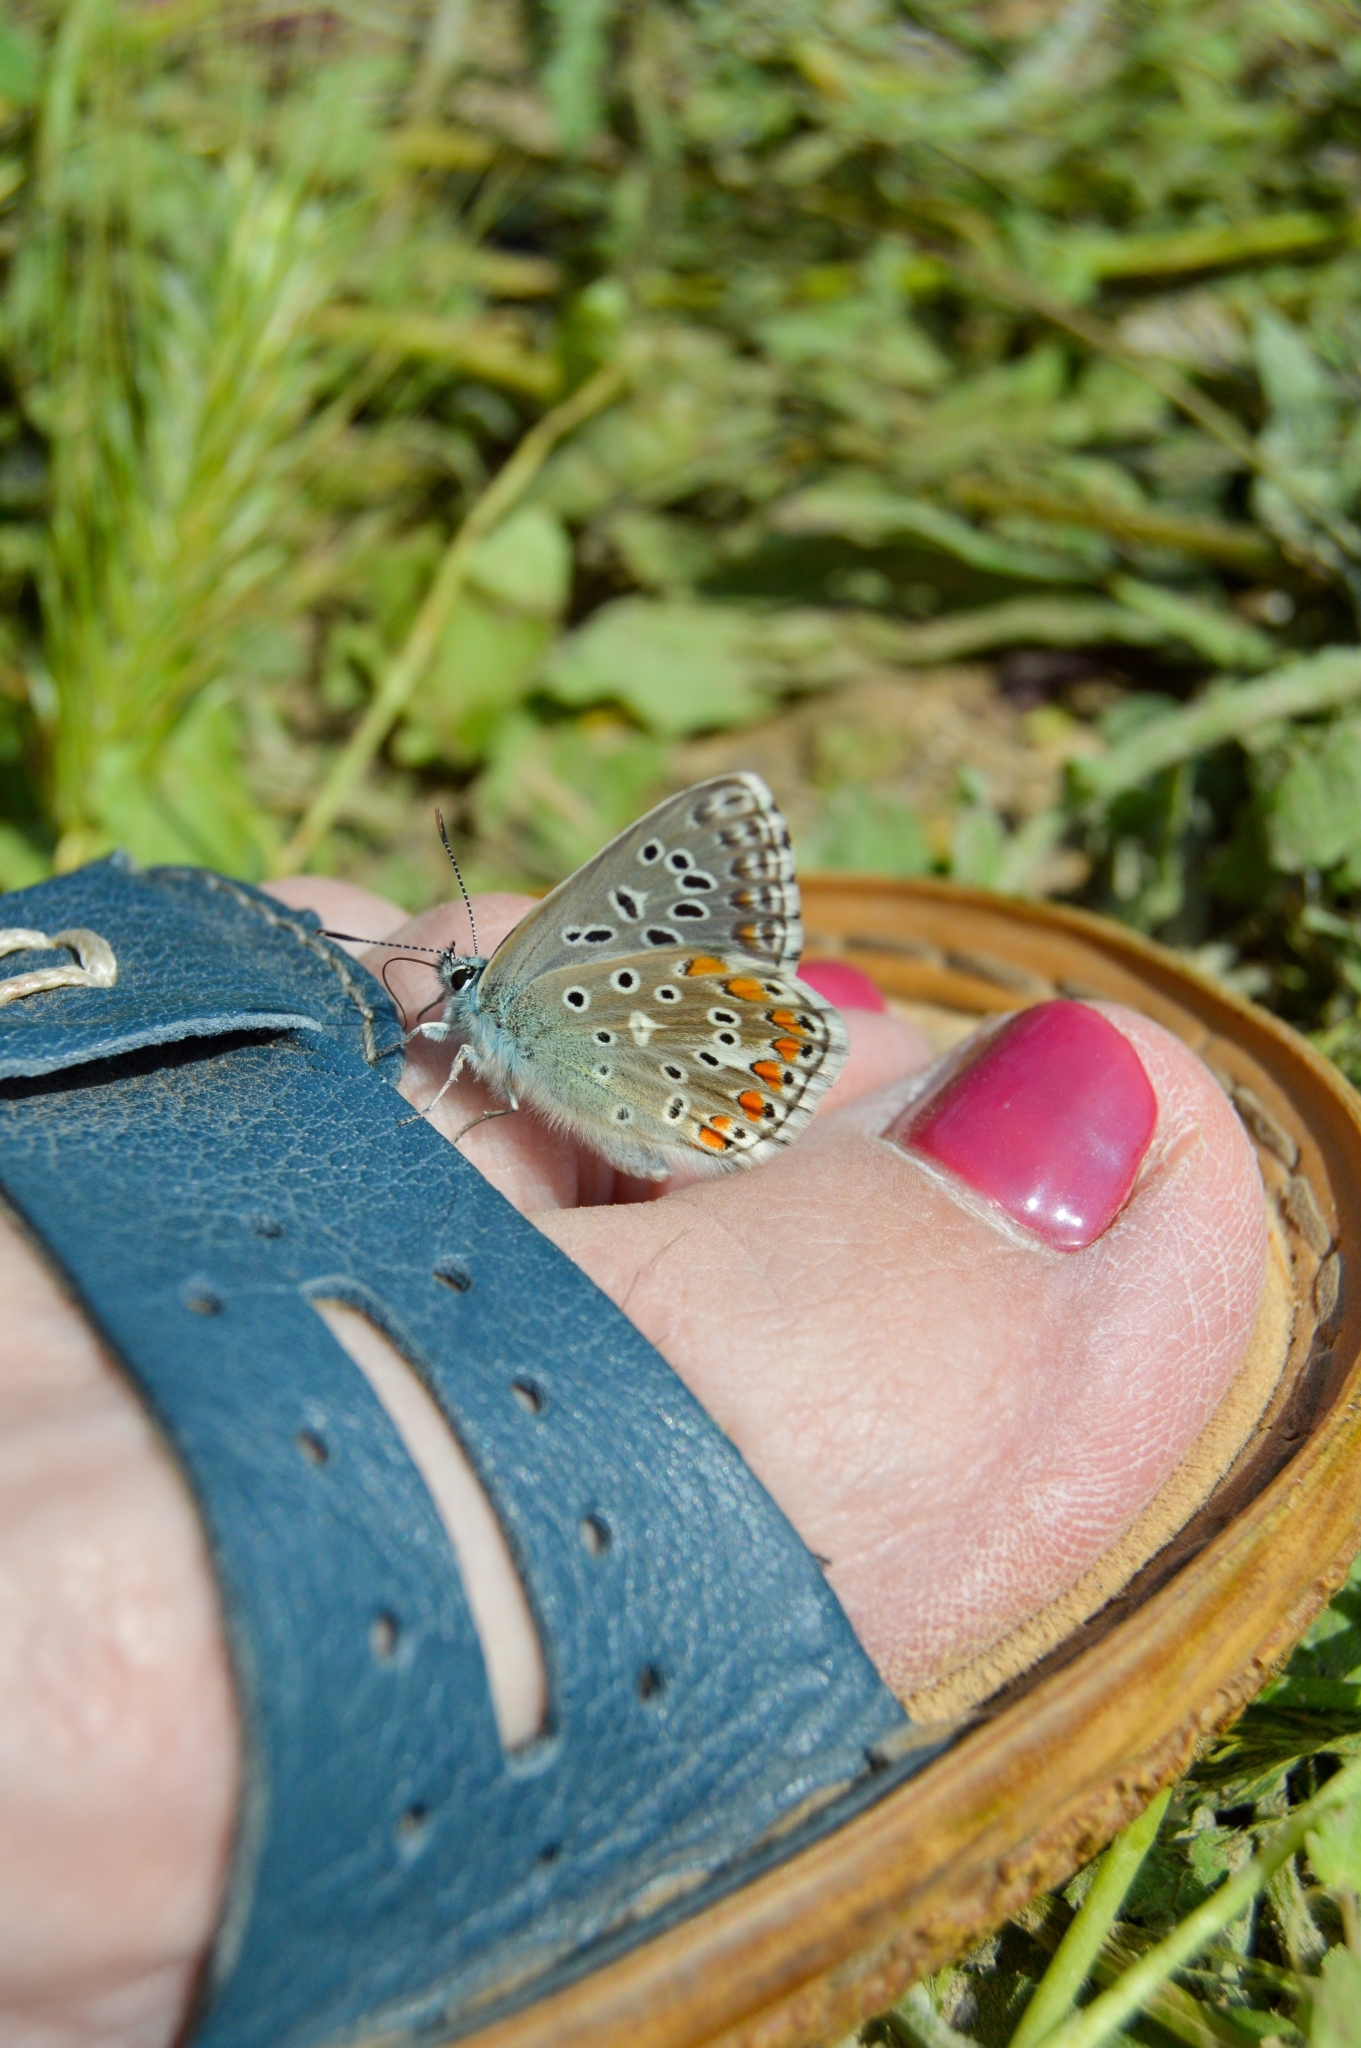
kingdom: Animalia
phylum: Arthropoda
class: Insecta
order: Lepidoptera
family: Lycaenidae
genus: Lysandra
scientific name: Lysandra bellargus
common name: Adonis blue
